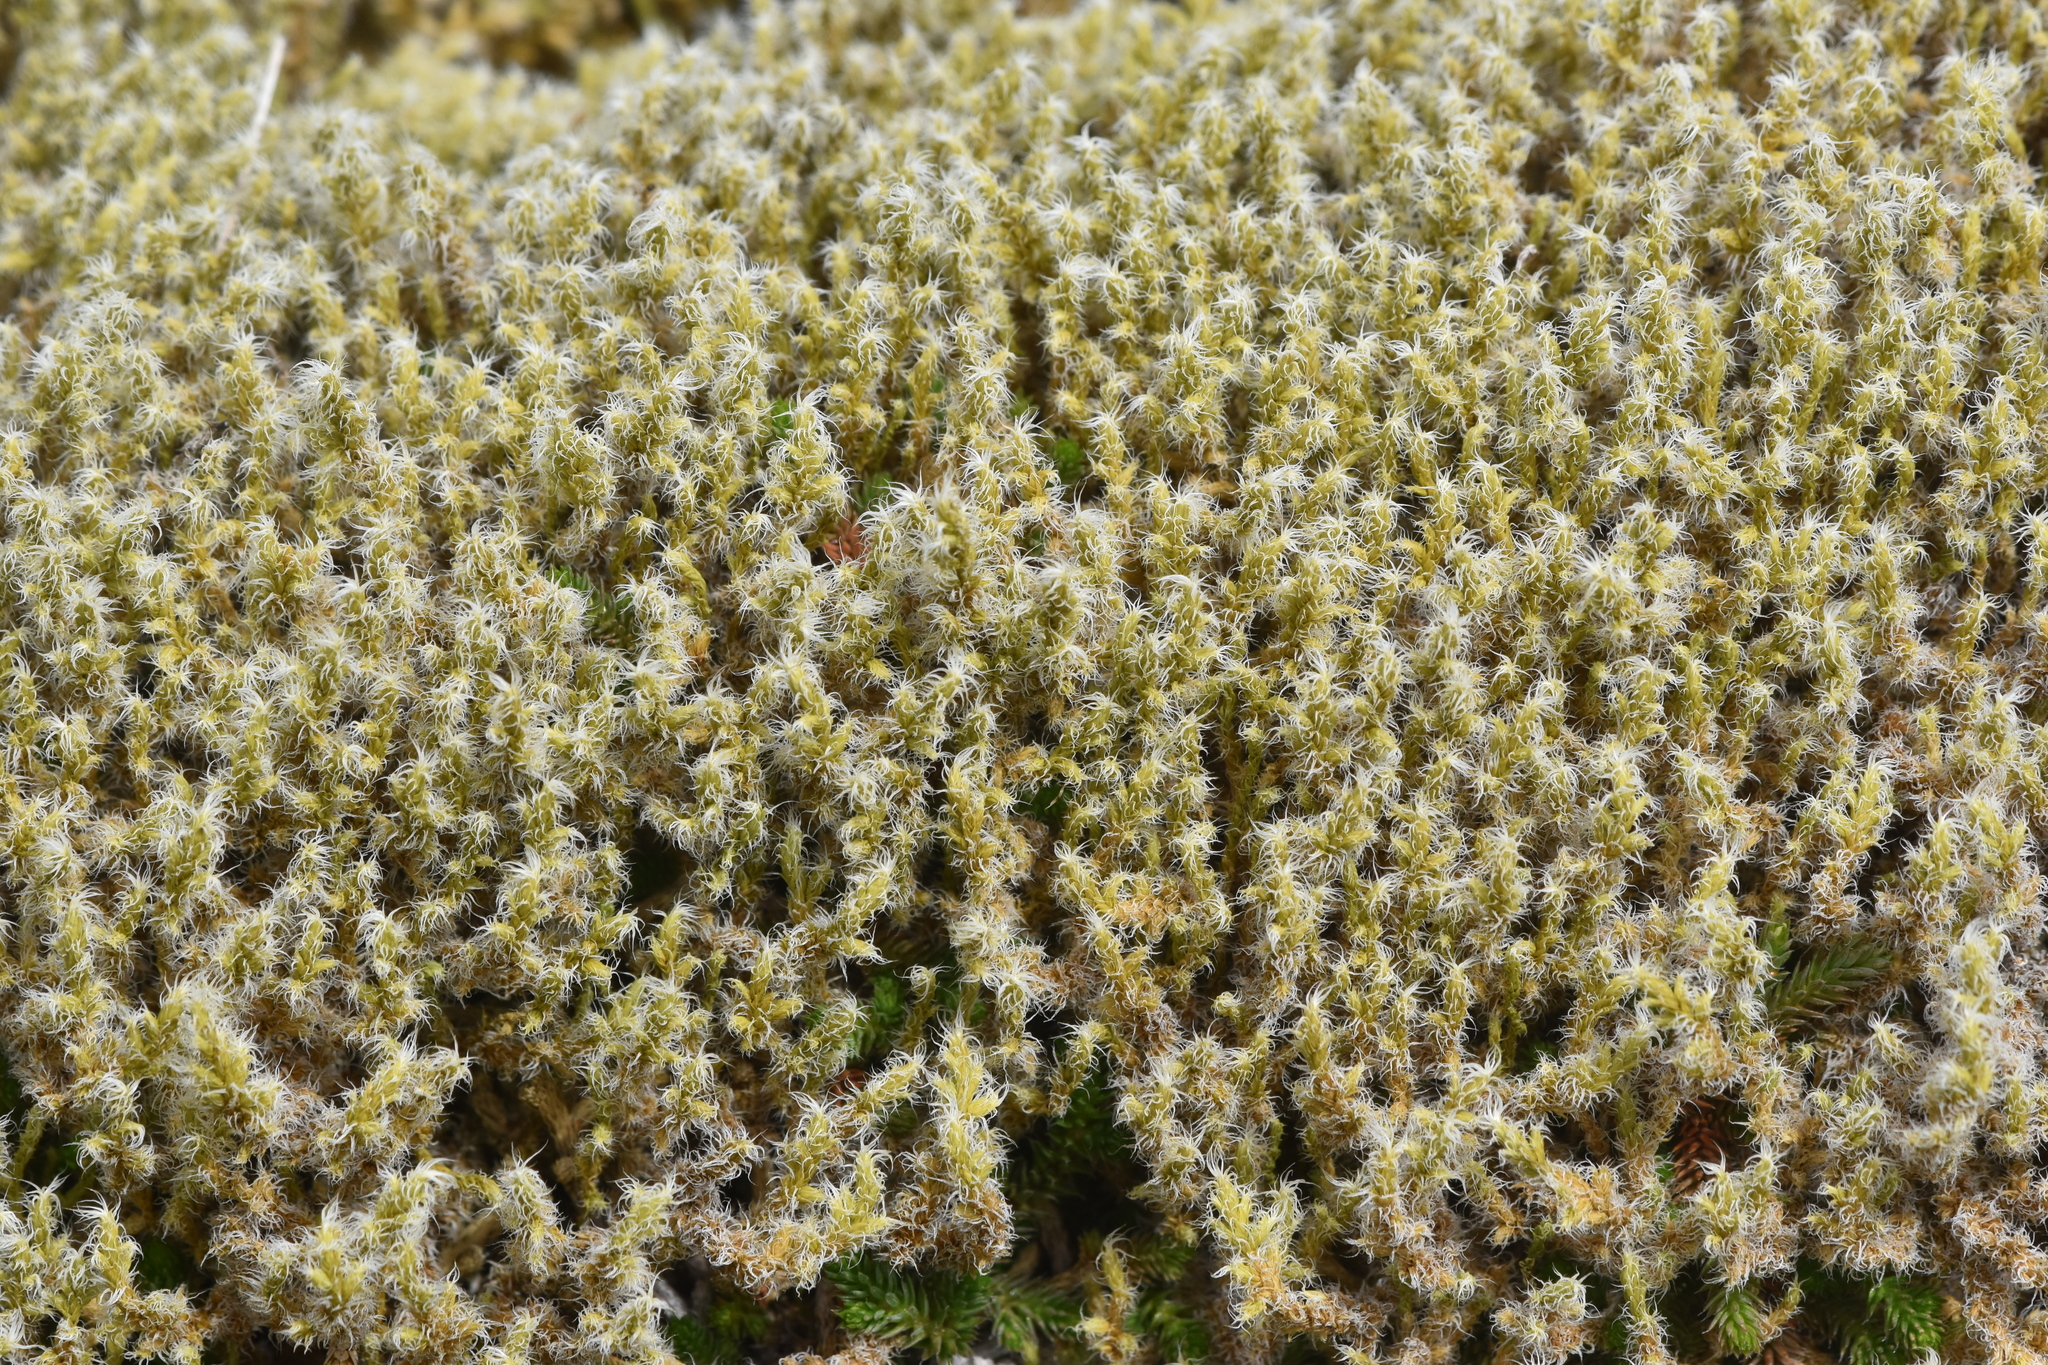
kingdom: Plantae
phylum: Bryophyta
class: Bryopsida
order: Grimmiales
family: Grimmiaceae
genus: Niphotrichum
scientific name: Niphotrichum elongatum
